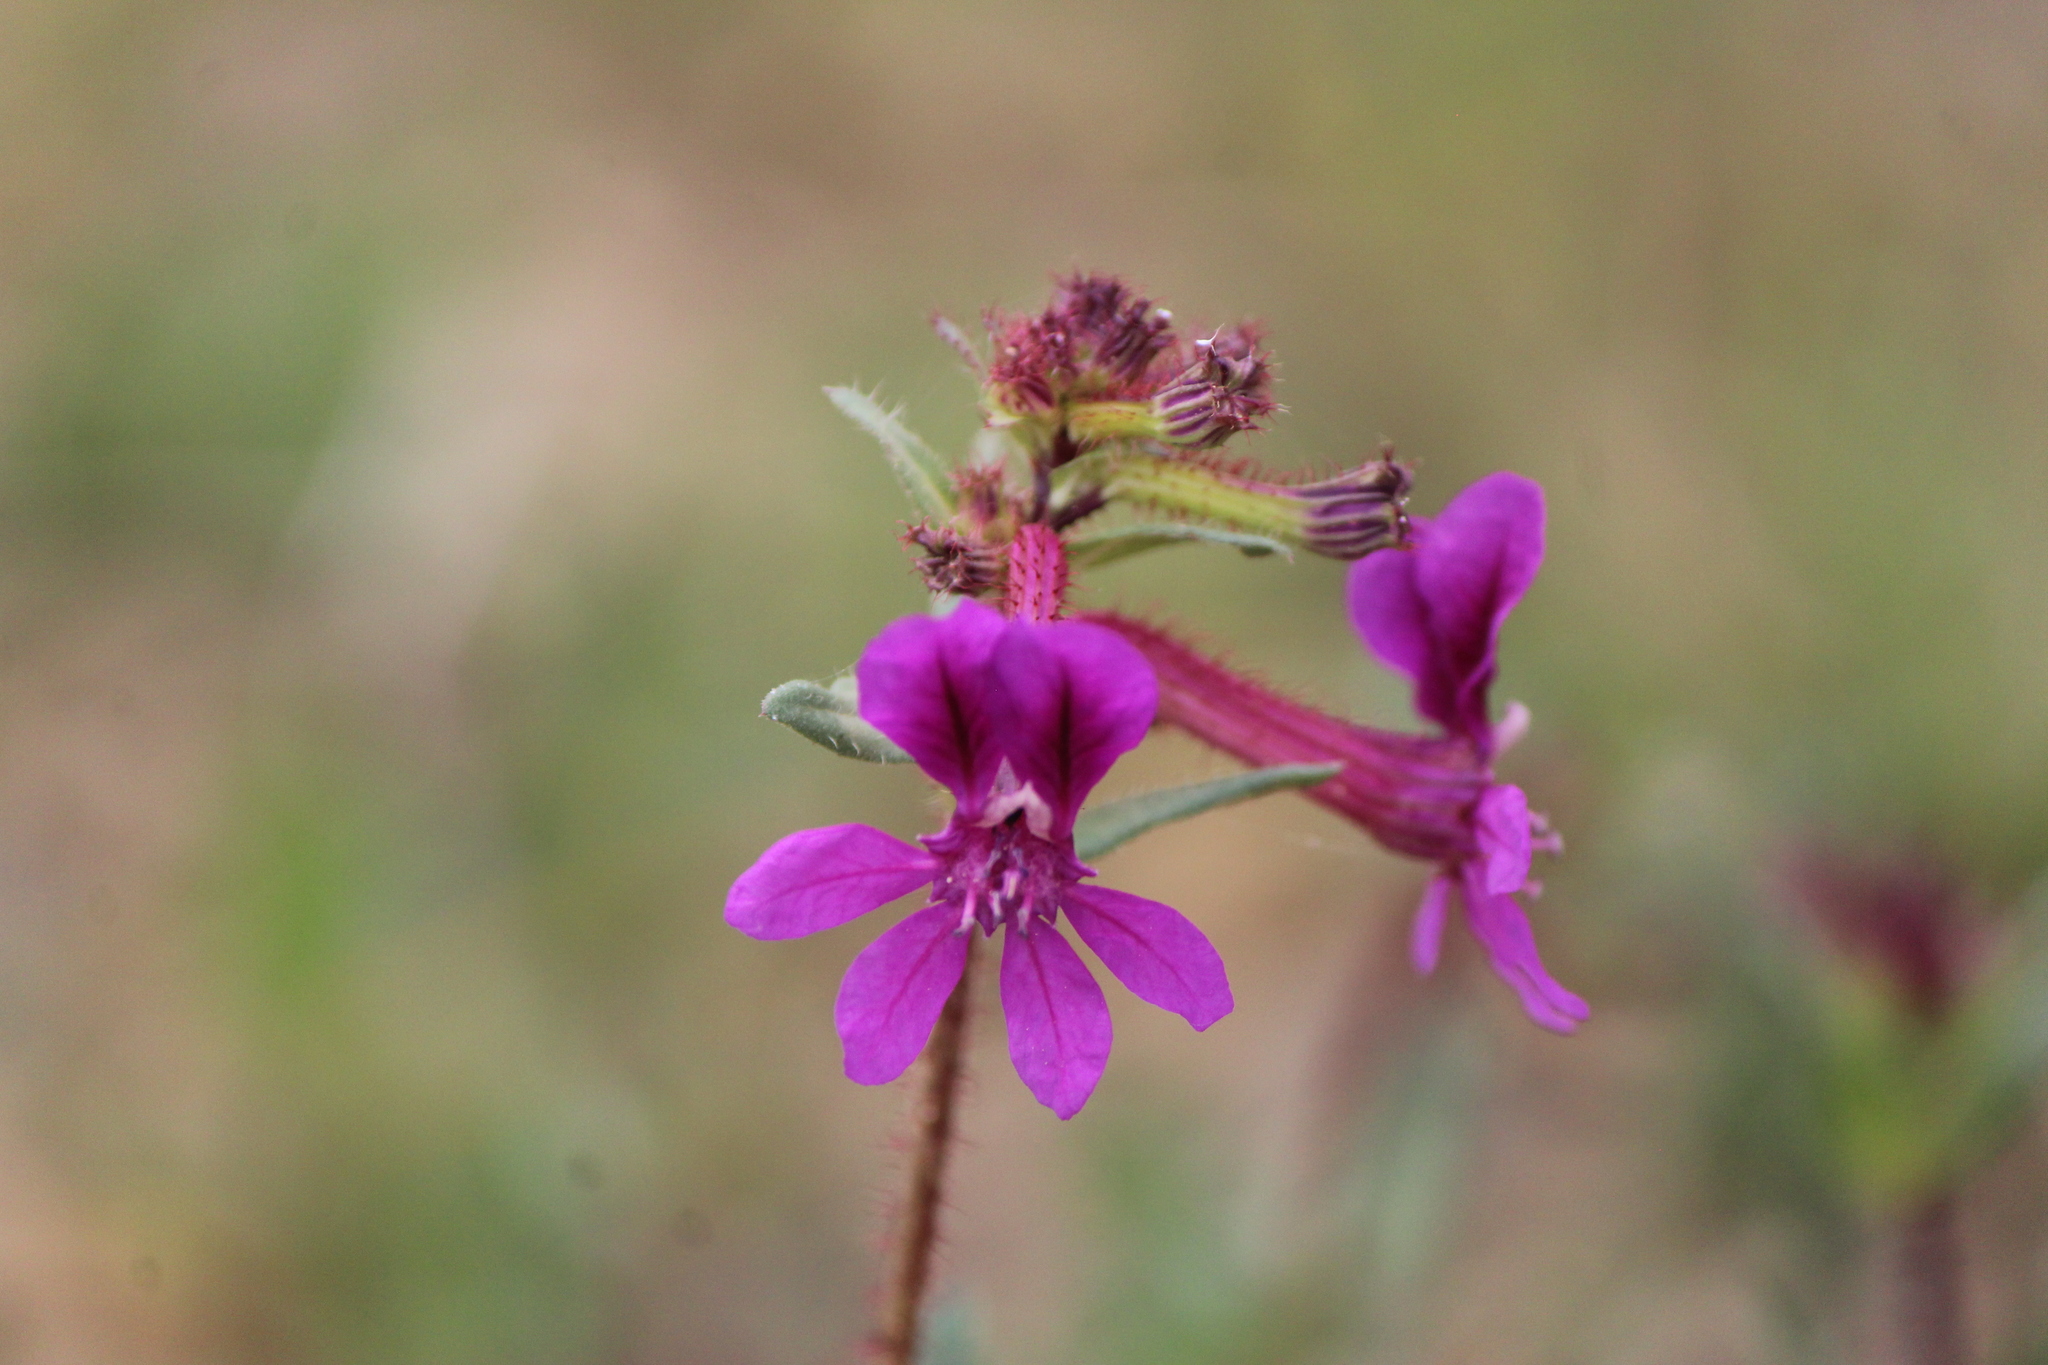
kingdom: Plantae
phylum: Tracheophyta
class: Magnoliopsida
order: Myrtales
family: Lythraceae
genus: Cuphea
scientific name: Cuphea aequipetala
